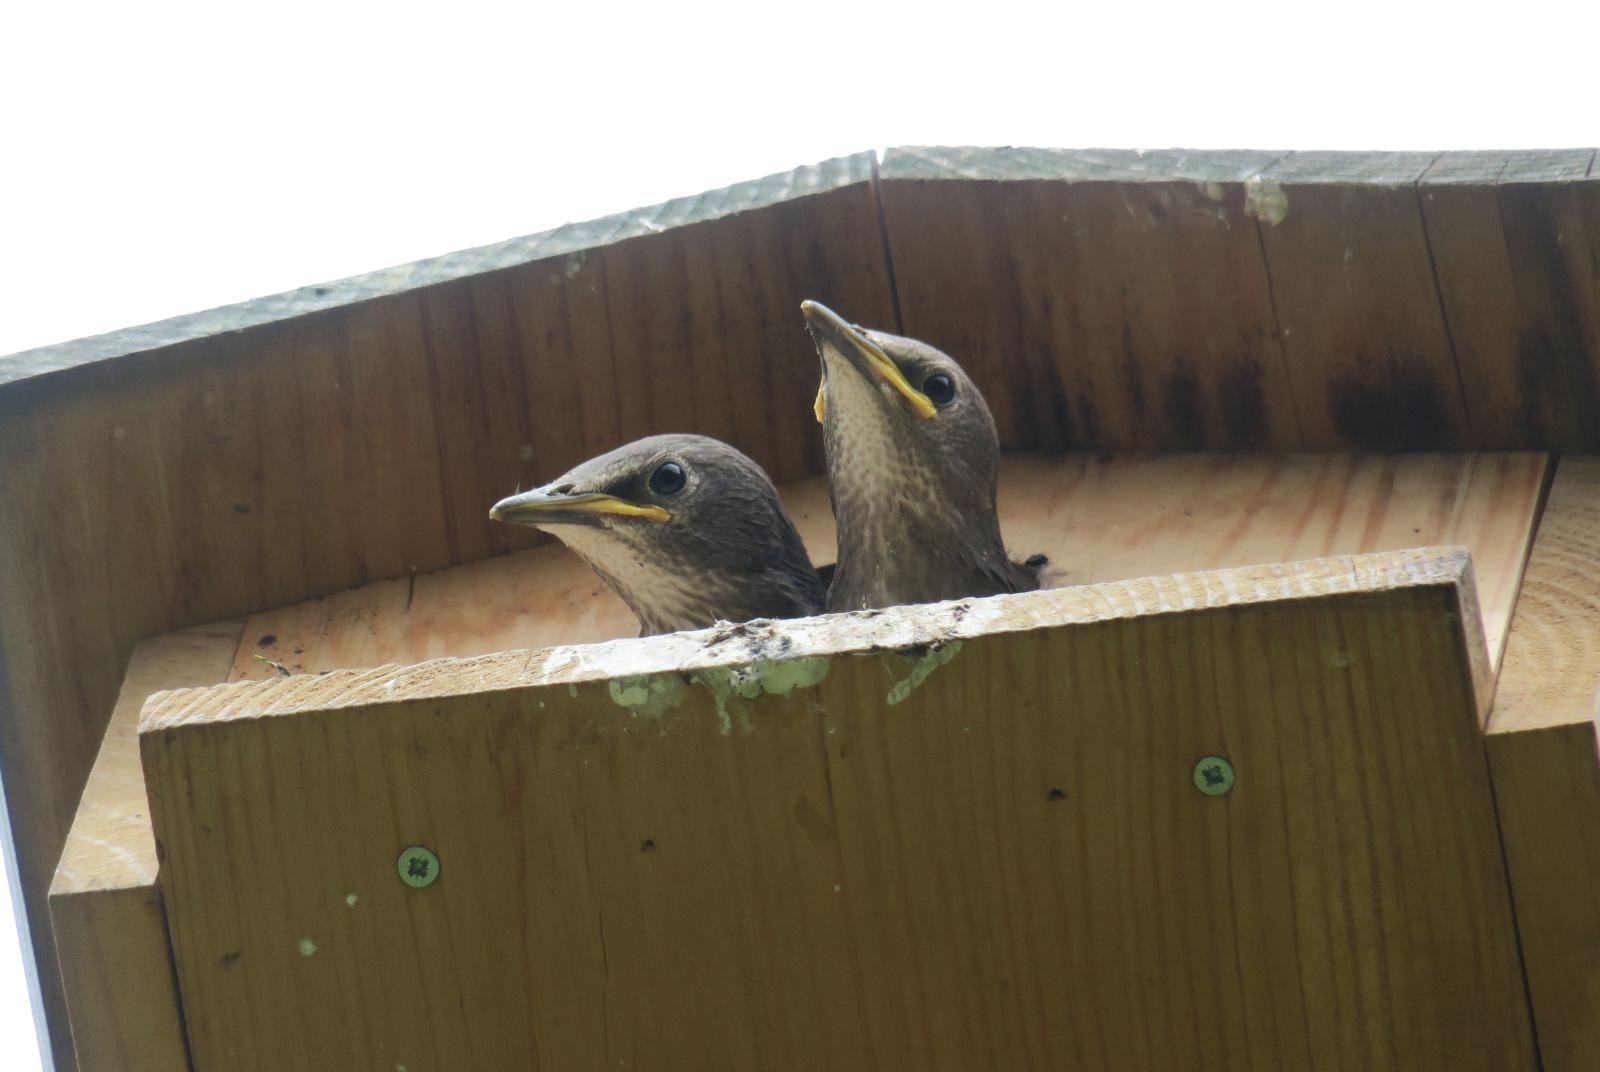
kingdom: Animalia
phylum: Chordata
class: Aves
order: Passeriformes
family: Sturnidae
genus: Sturnus
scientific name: Sturnus vulgaris
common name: Common starling
